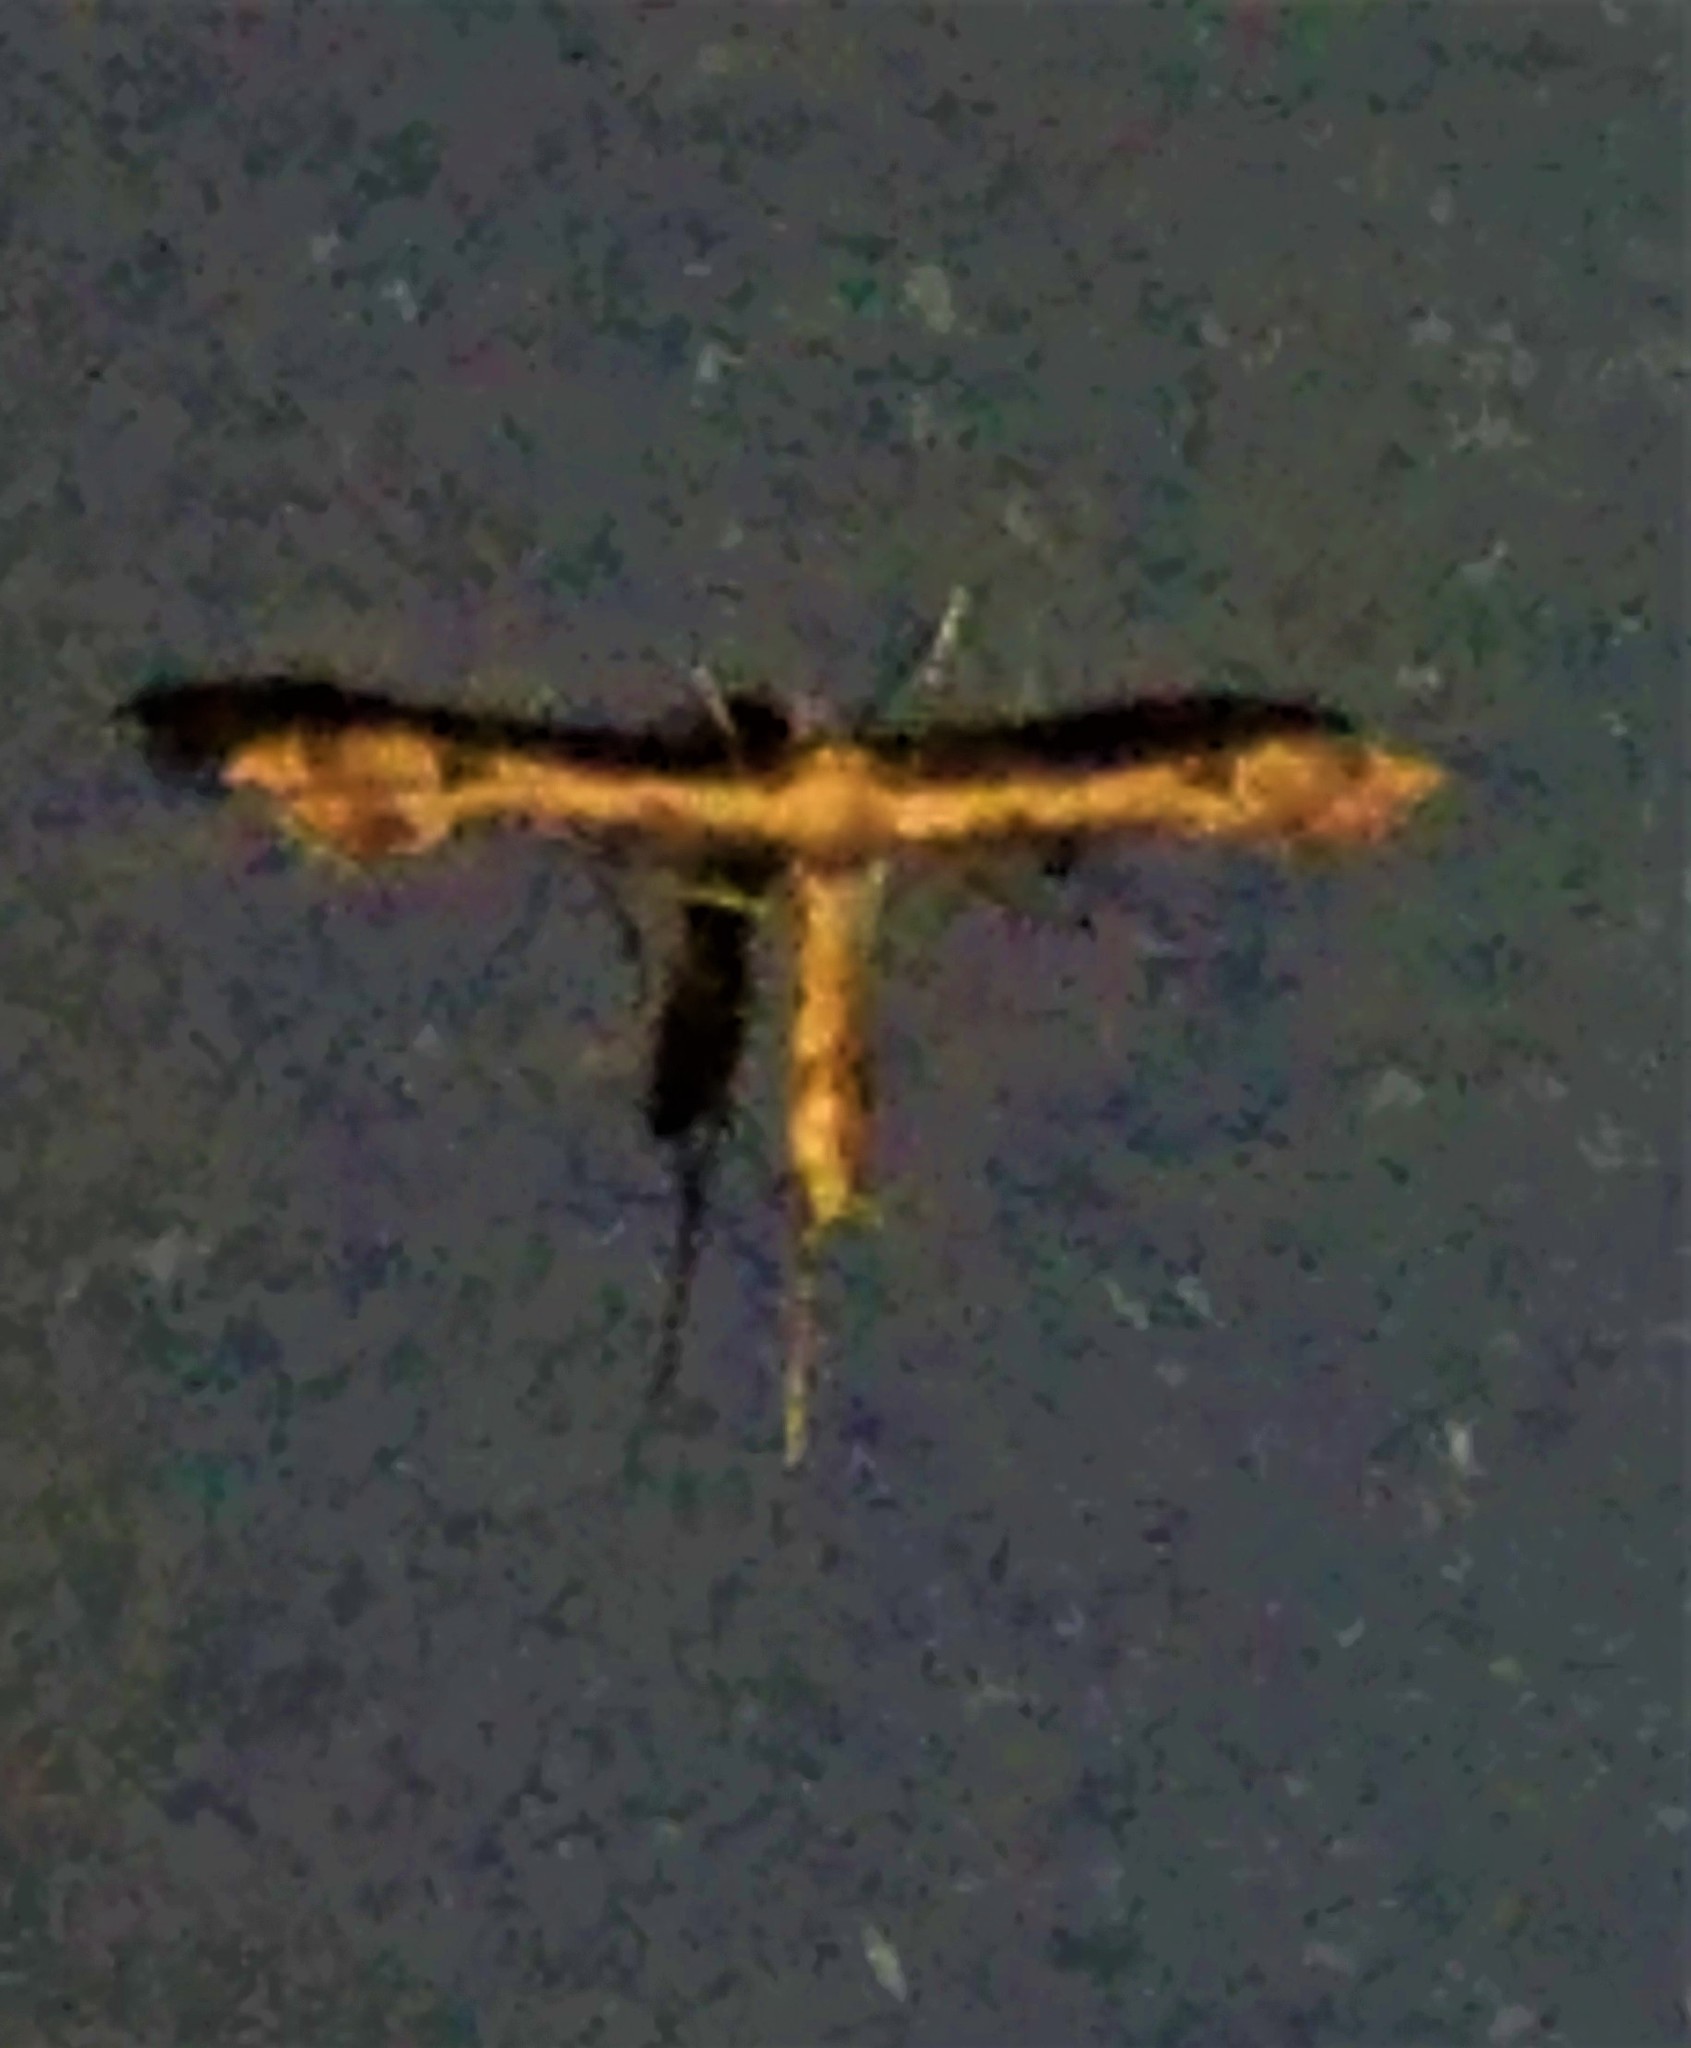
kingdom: Animalia
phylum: Arthropoda
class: Insecta
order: Lepidoptera
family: Pterophoridae
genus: Lantanophaga
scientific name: Lantanophaga pusillidactylus
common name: Moth
